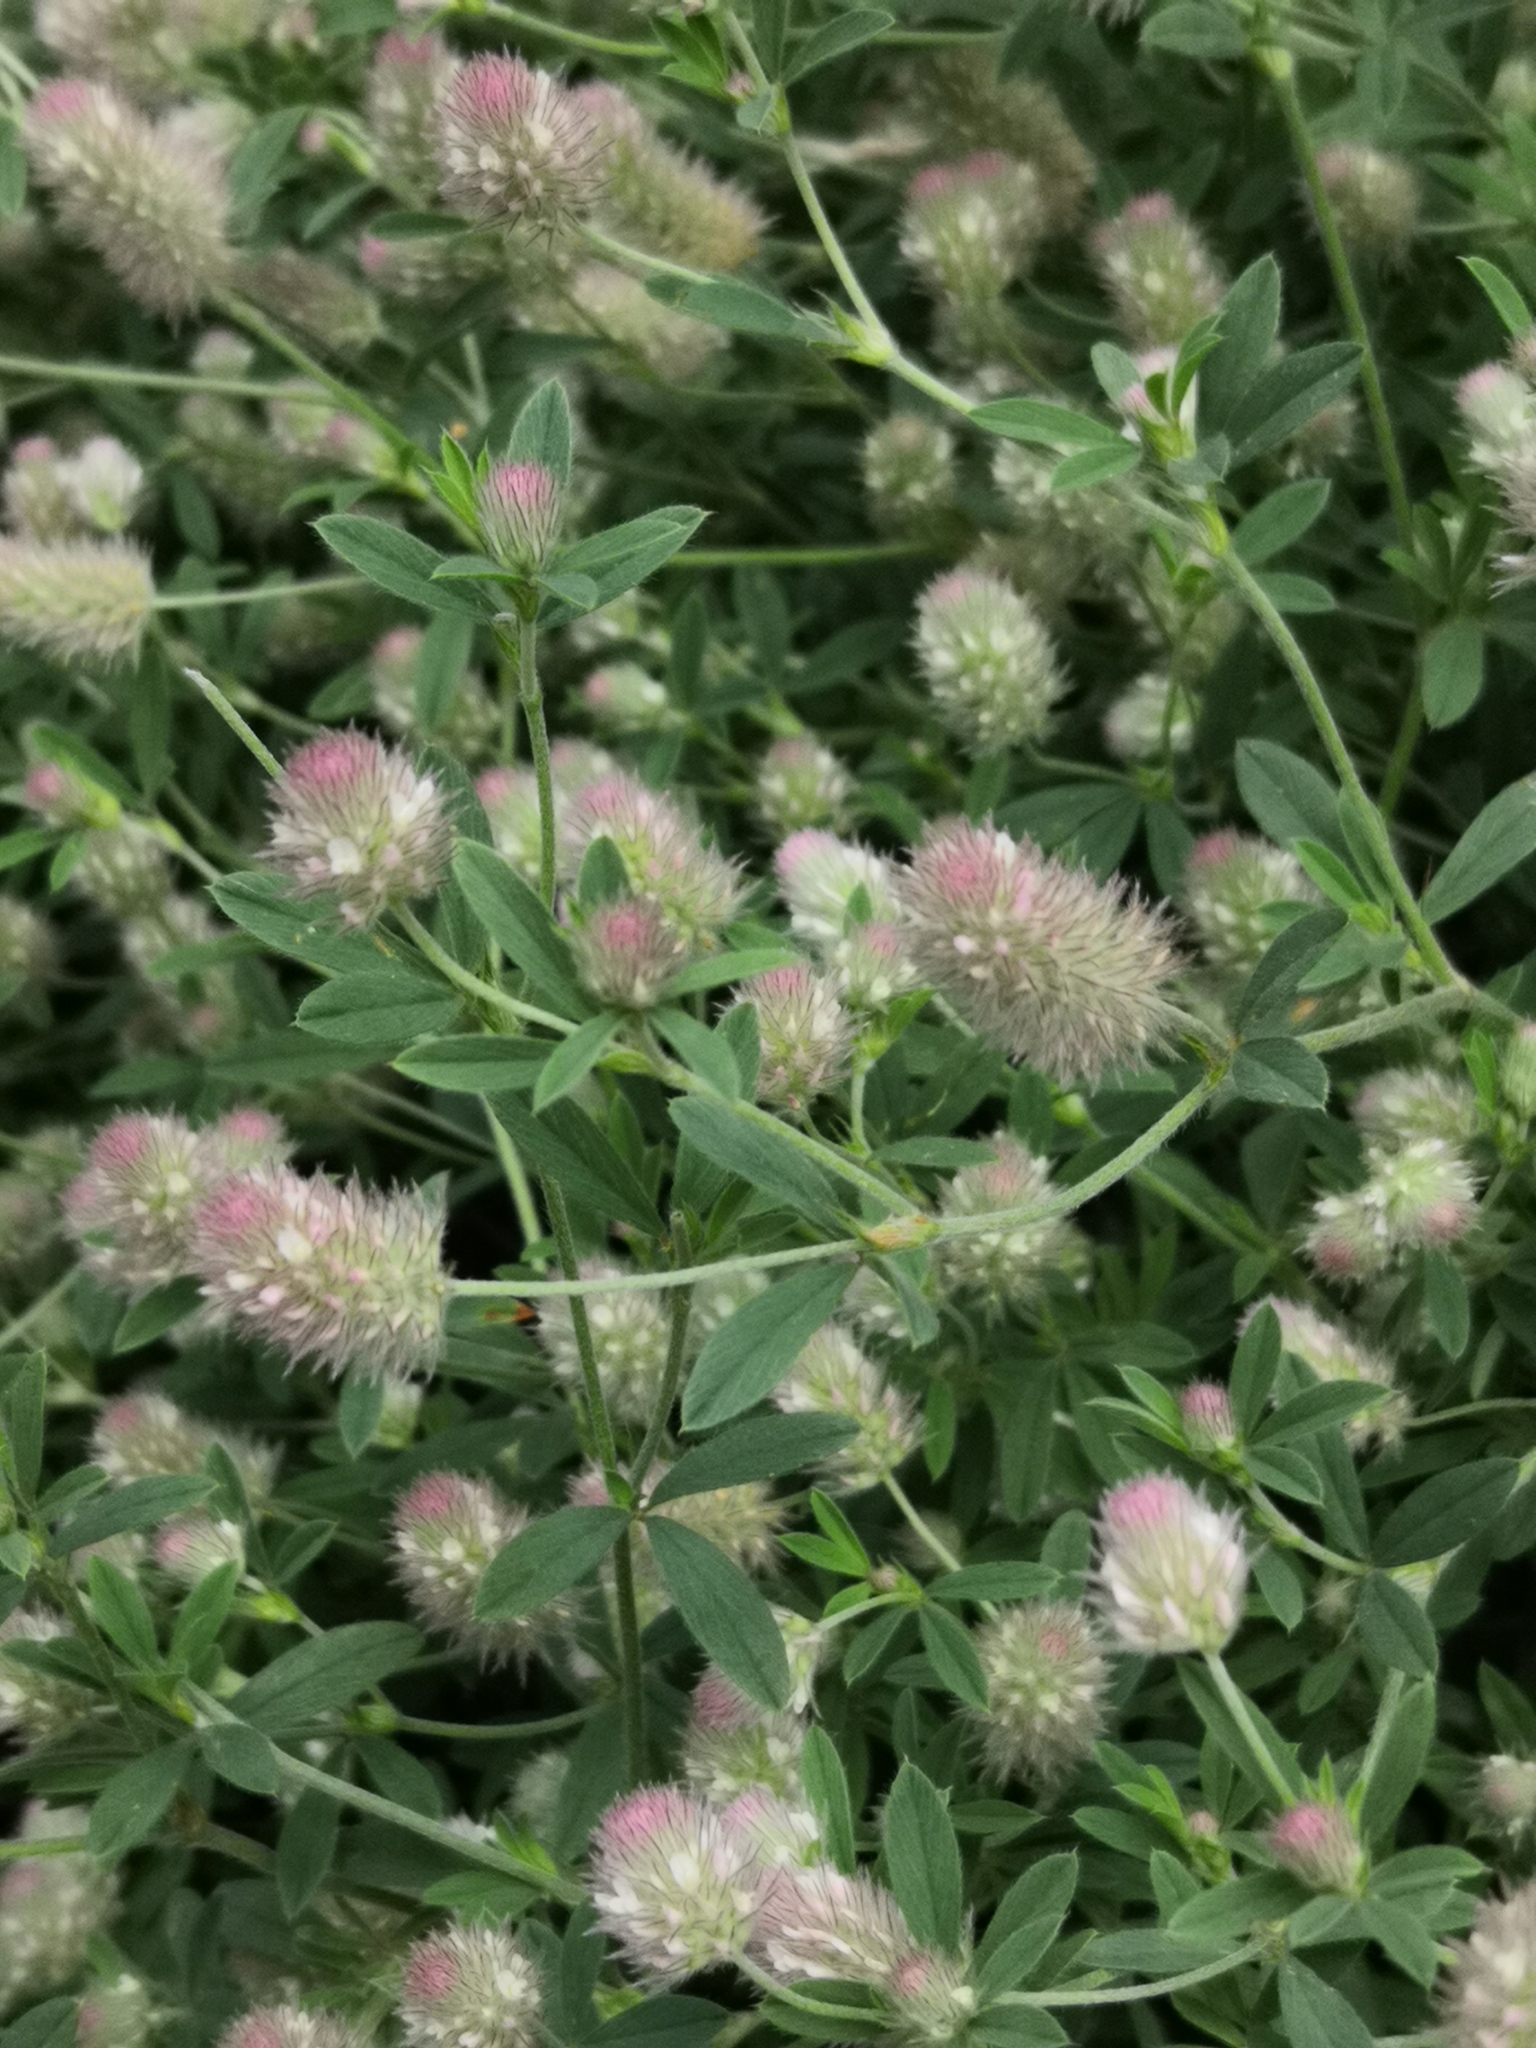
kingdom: Plantae
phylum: Tracheophyta
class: Magnoliopsida
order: Fabales
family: Fabaceae
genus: Trifolium
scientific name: Trifolium arvense
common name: Hare's-foot clover
